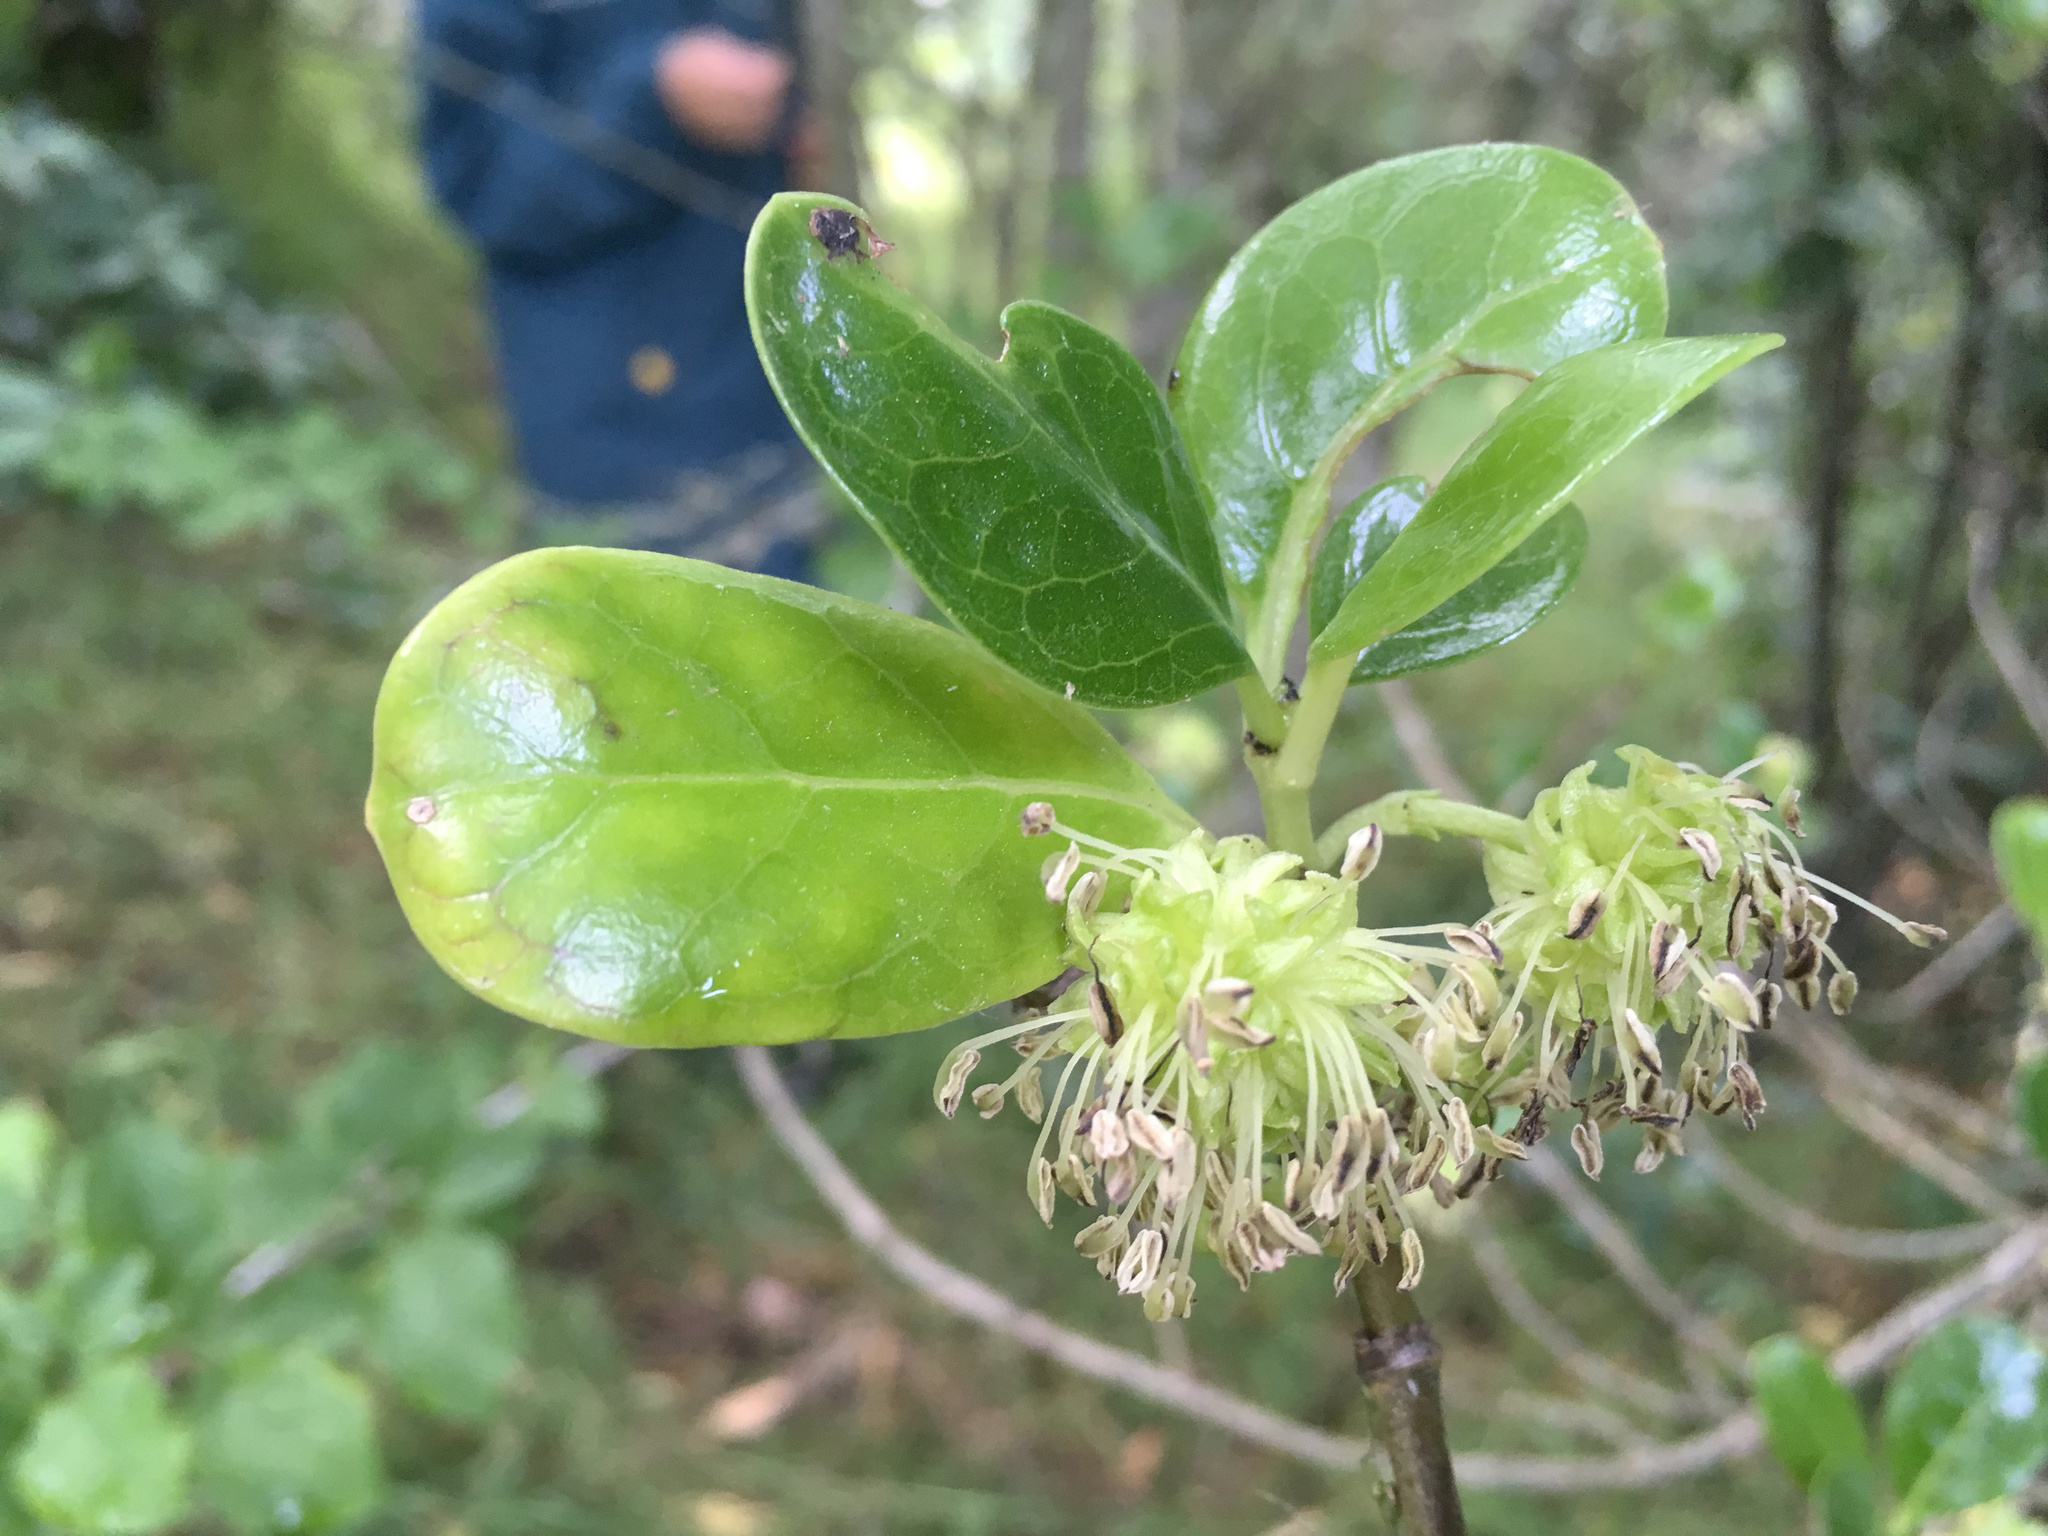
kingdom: Plantae
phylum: Tracheophyta
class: Magnoliopsida
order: Gentianales
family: Rubiaceae
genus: Coprosma
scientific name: Coprosma repens
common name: Tree bedstraw
